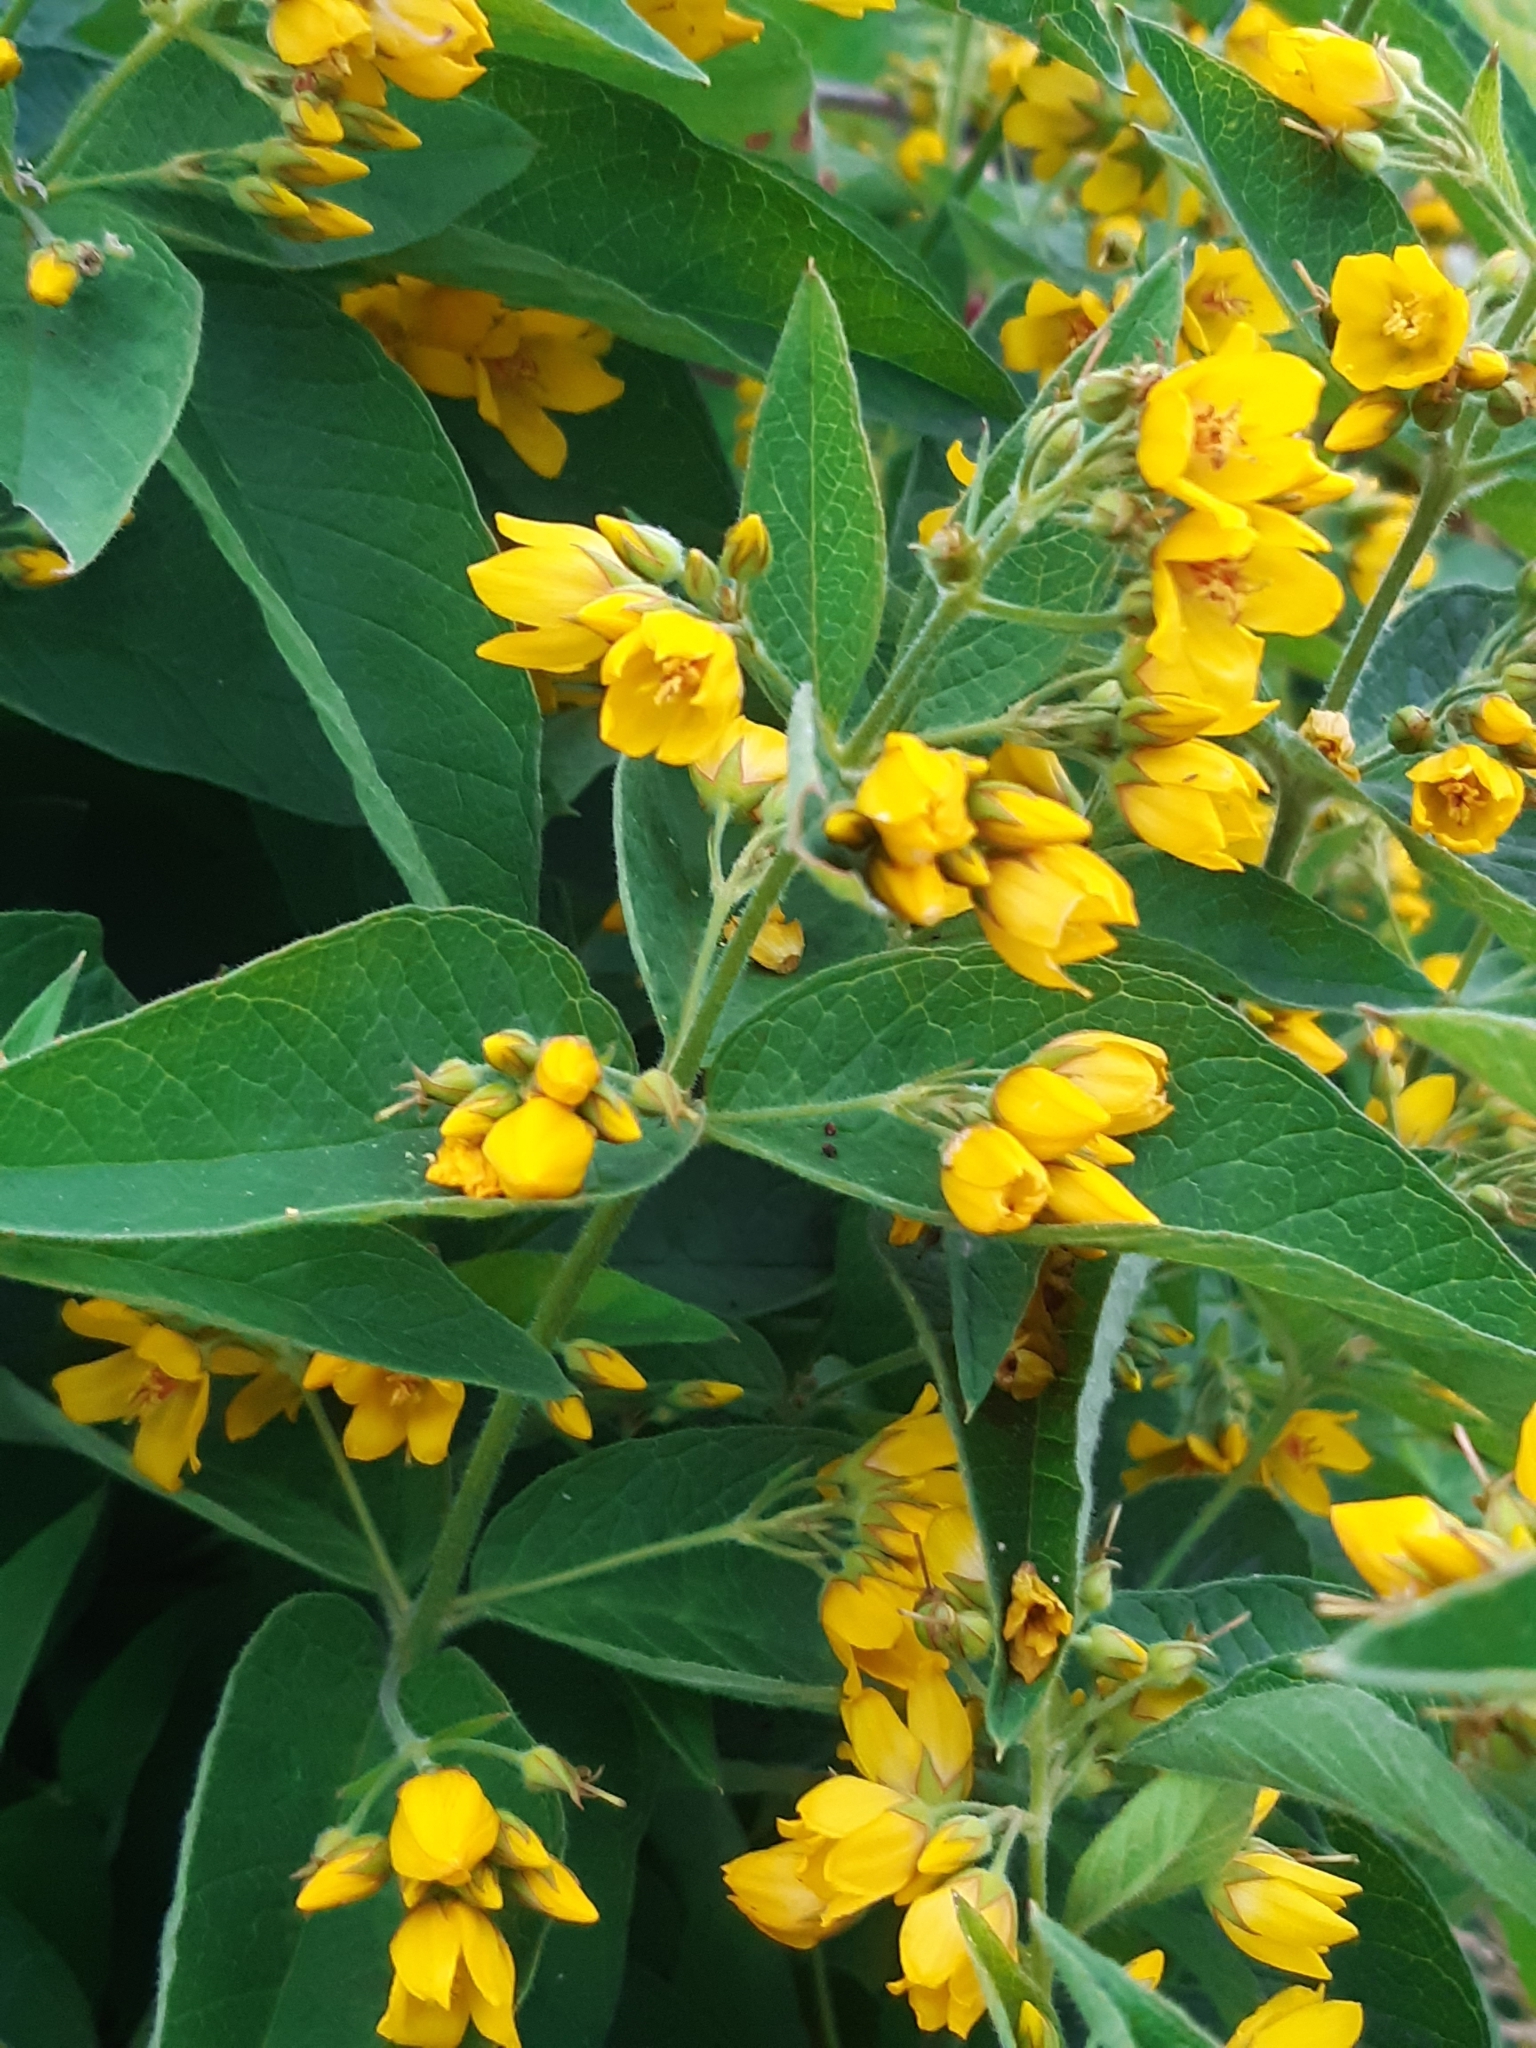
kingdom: Plantae
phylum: Tracheophyta
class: Magnoliopsida
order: Ericales
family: Primulaceae
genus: Lysimachia
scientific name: Lysimachia vulgaris
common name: Yellow loosestrife
